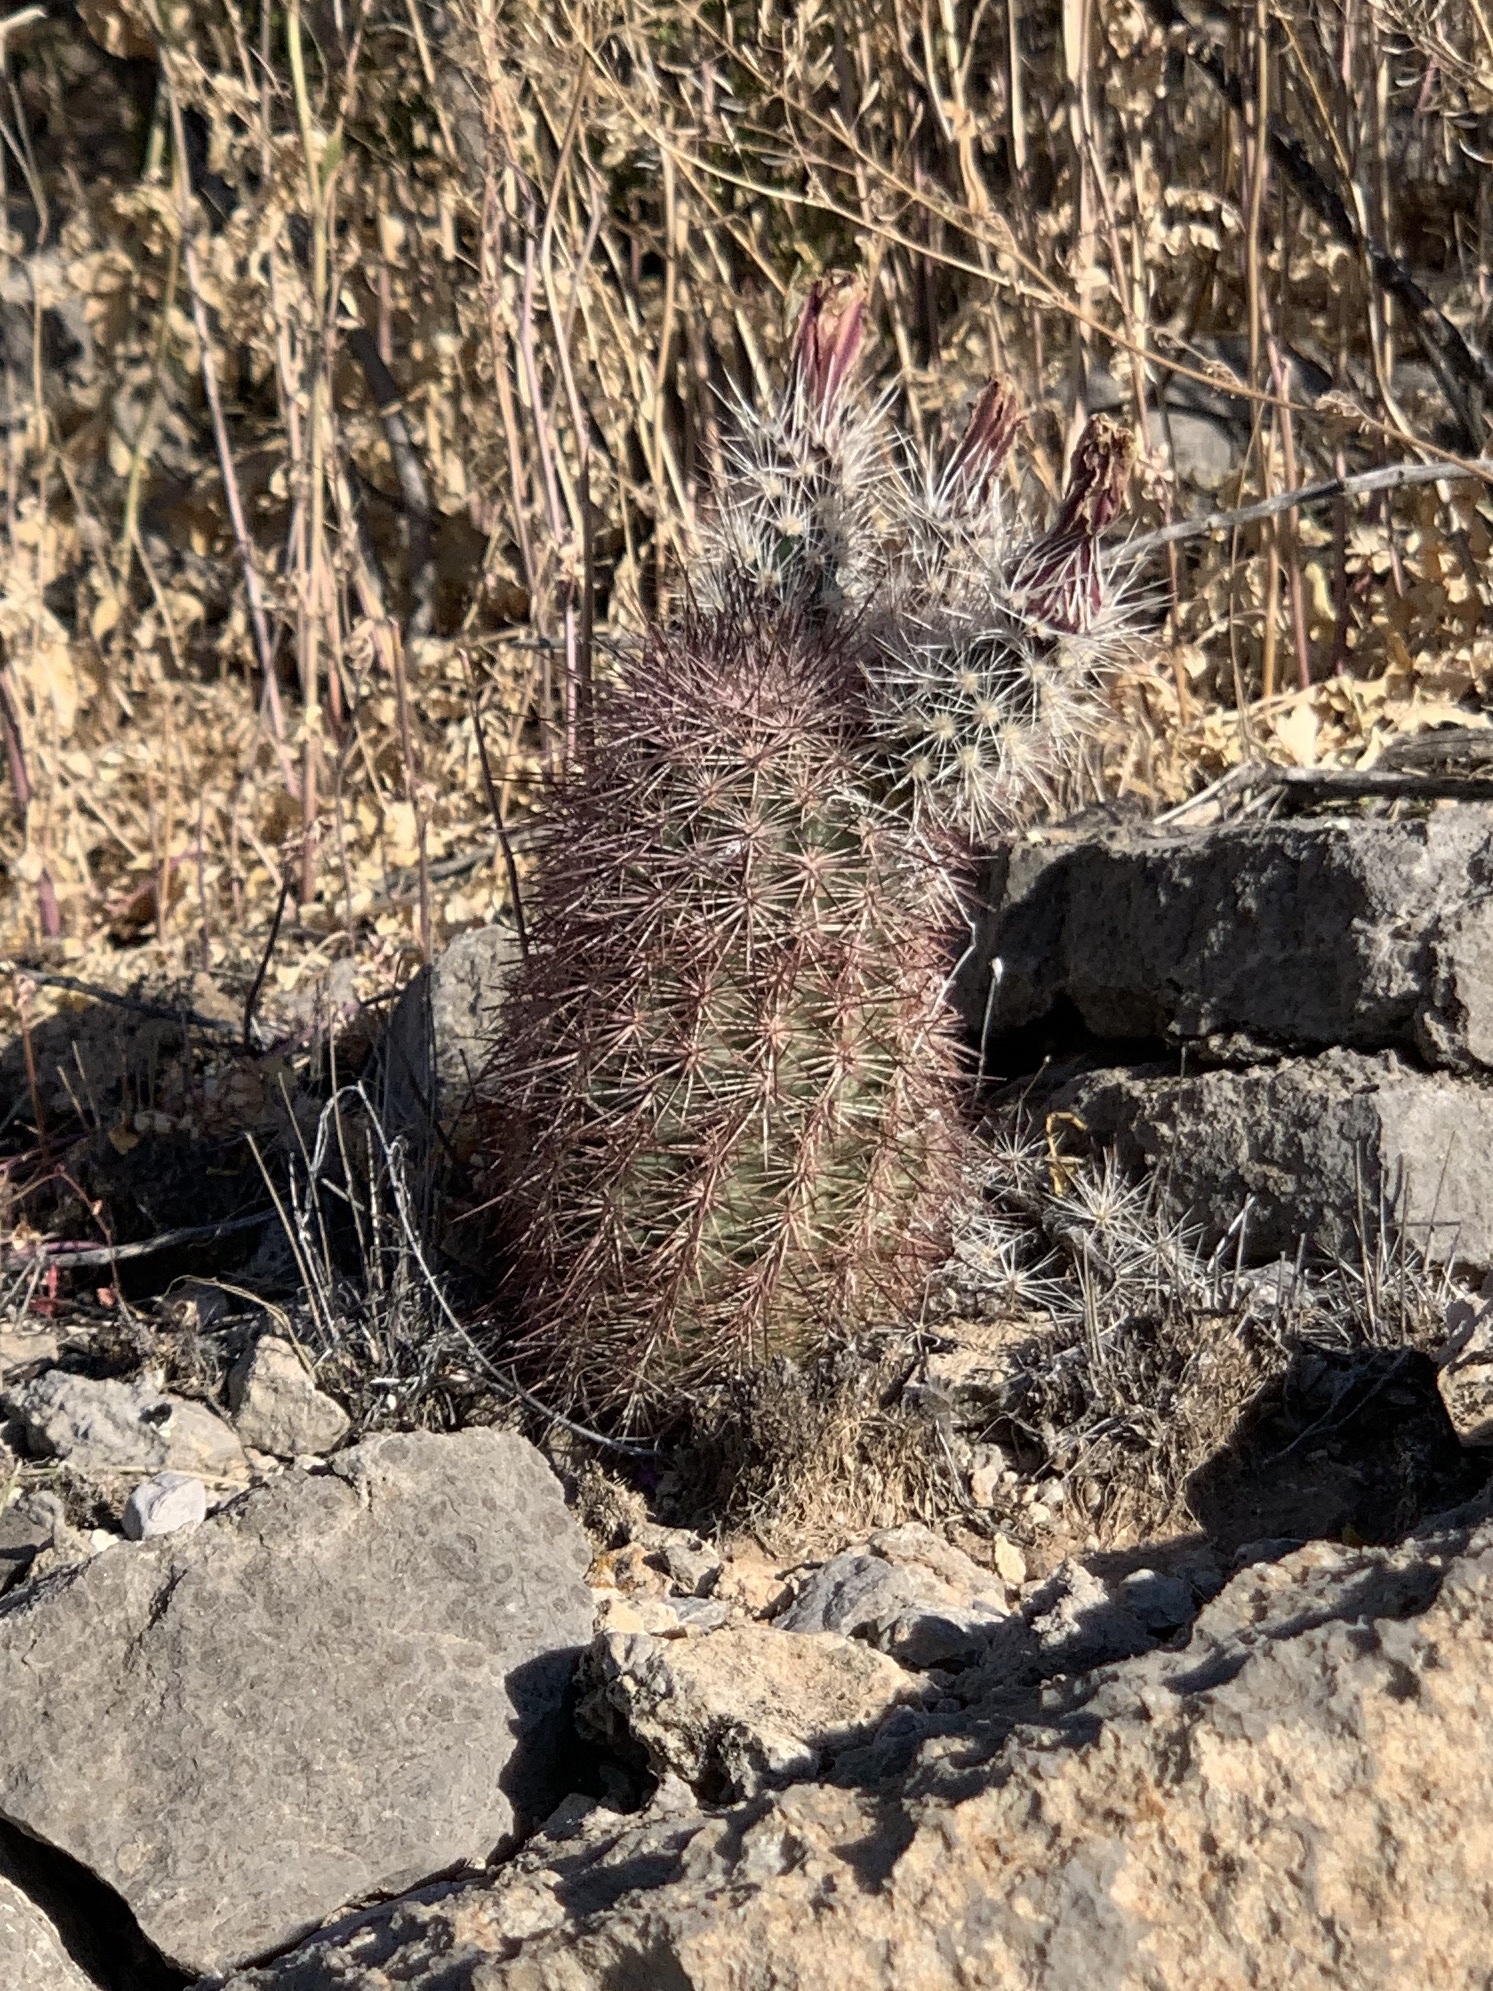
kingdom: Plantae
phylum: Tracheophyta
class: Magnoliopsida
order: Caryophyllales
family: Cactaceae
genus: Echinocereus
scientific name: Echinocereus dasyacanthus
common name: Spiny hedgehog cactus
